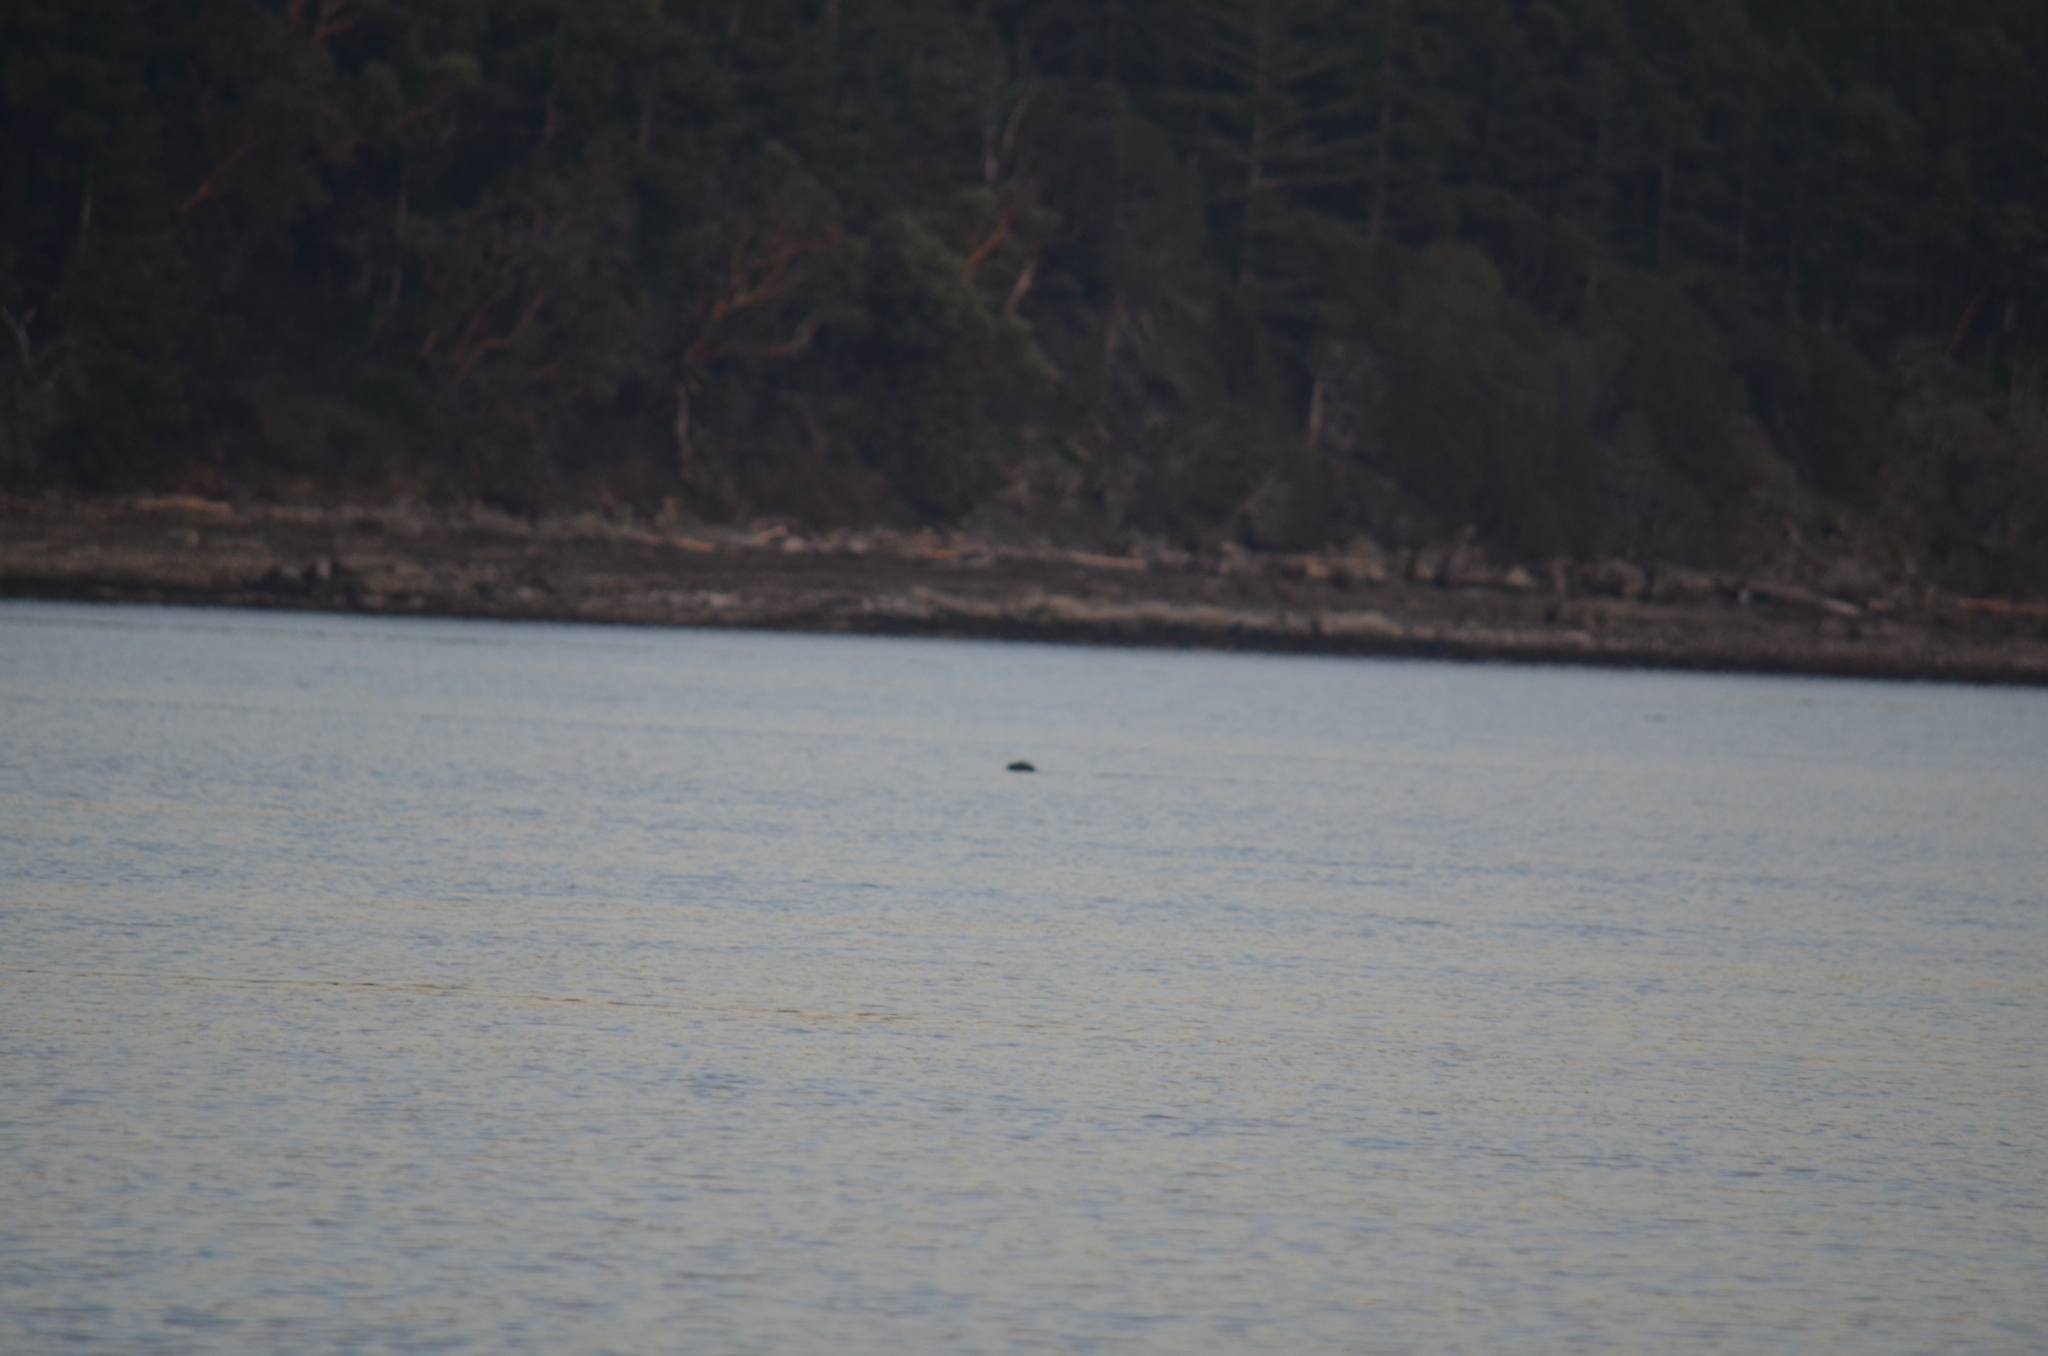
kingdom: Animalia
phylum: Chordata
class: Mammalia
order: Carnivora
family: Phocidae
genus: Phoca
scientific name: Phoca vitulina
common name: Harbor seal
